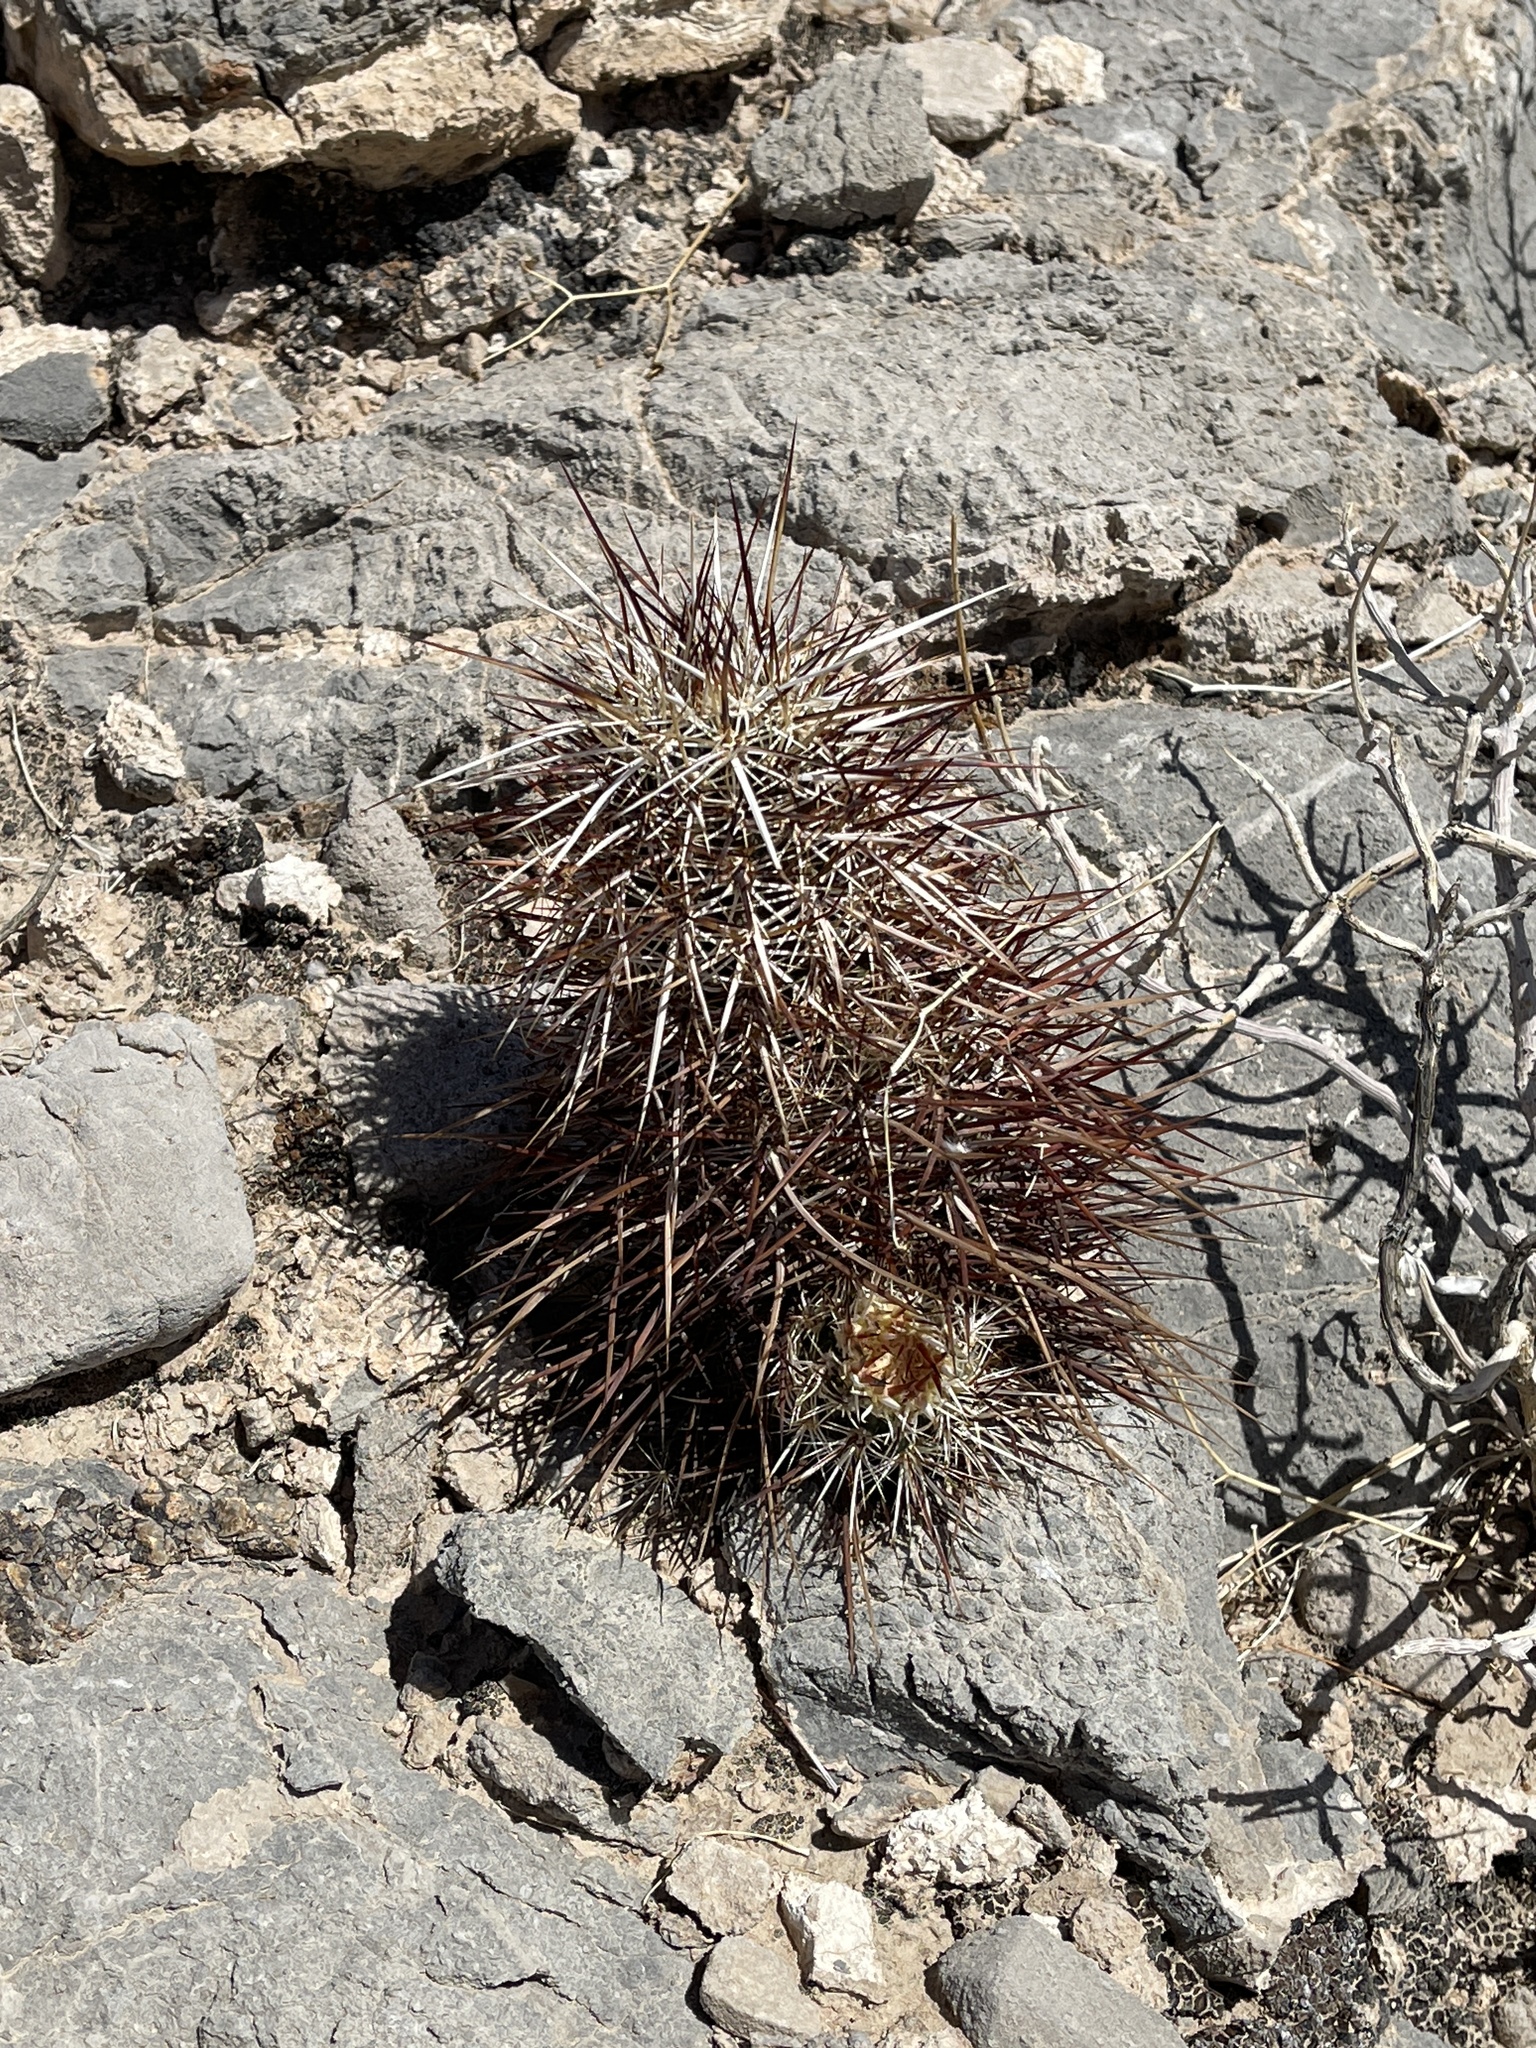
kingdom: Plantae
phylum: Tracheophyta
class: Magnoliopsida
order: Caryophyllales
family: Cactaceae
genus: Echinocereus
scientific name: Echinocereus engelmannii
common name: Engelmann's hedgehog cactus
